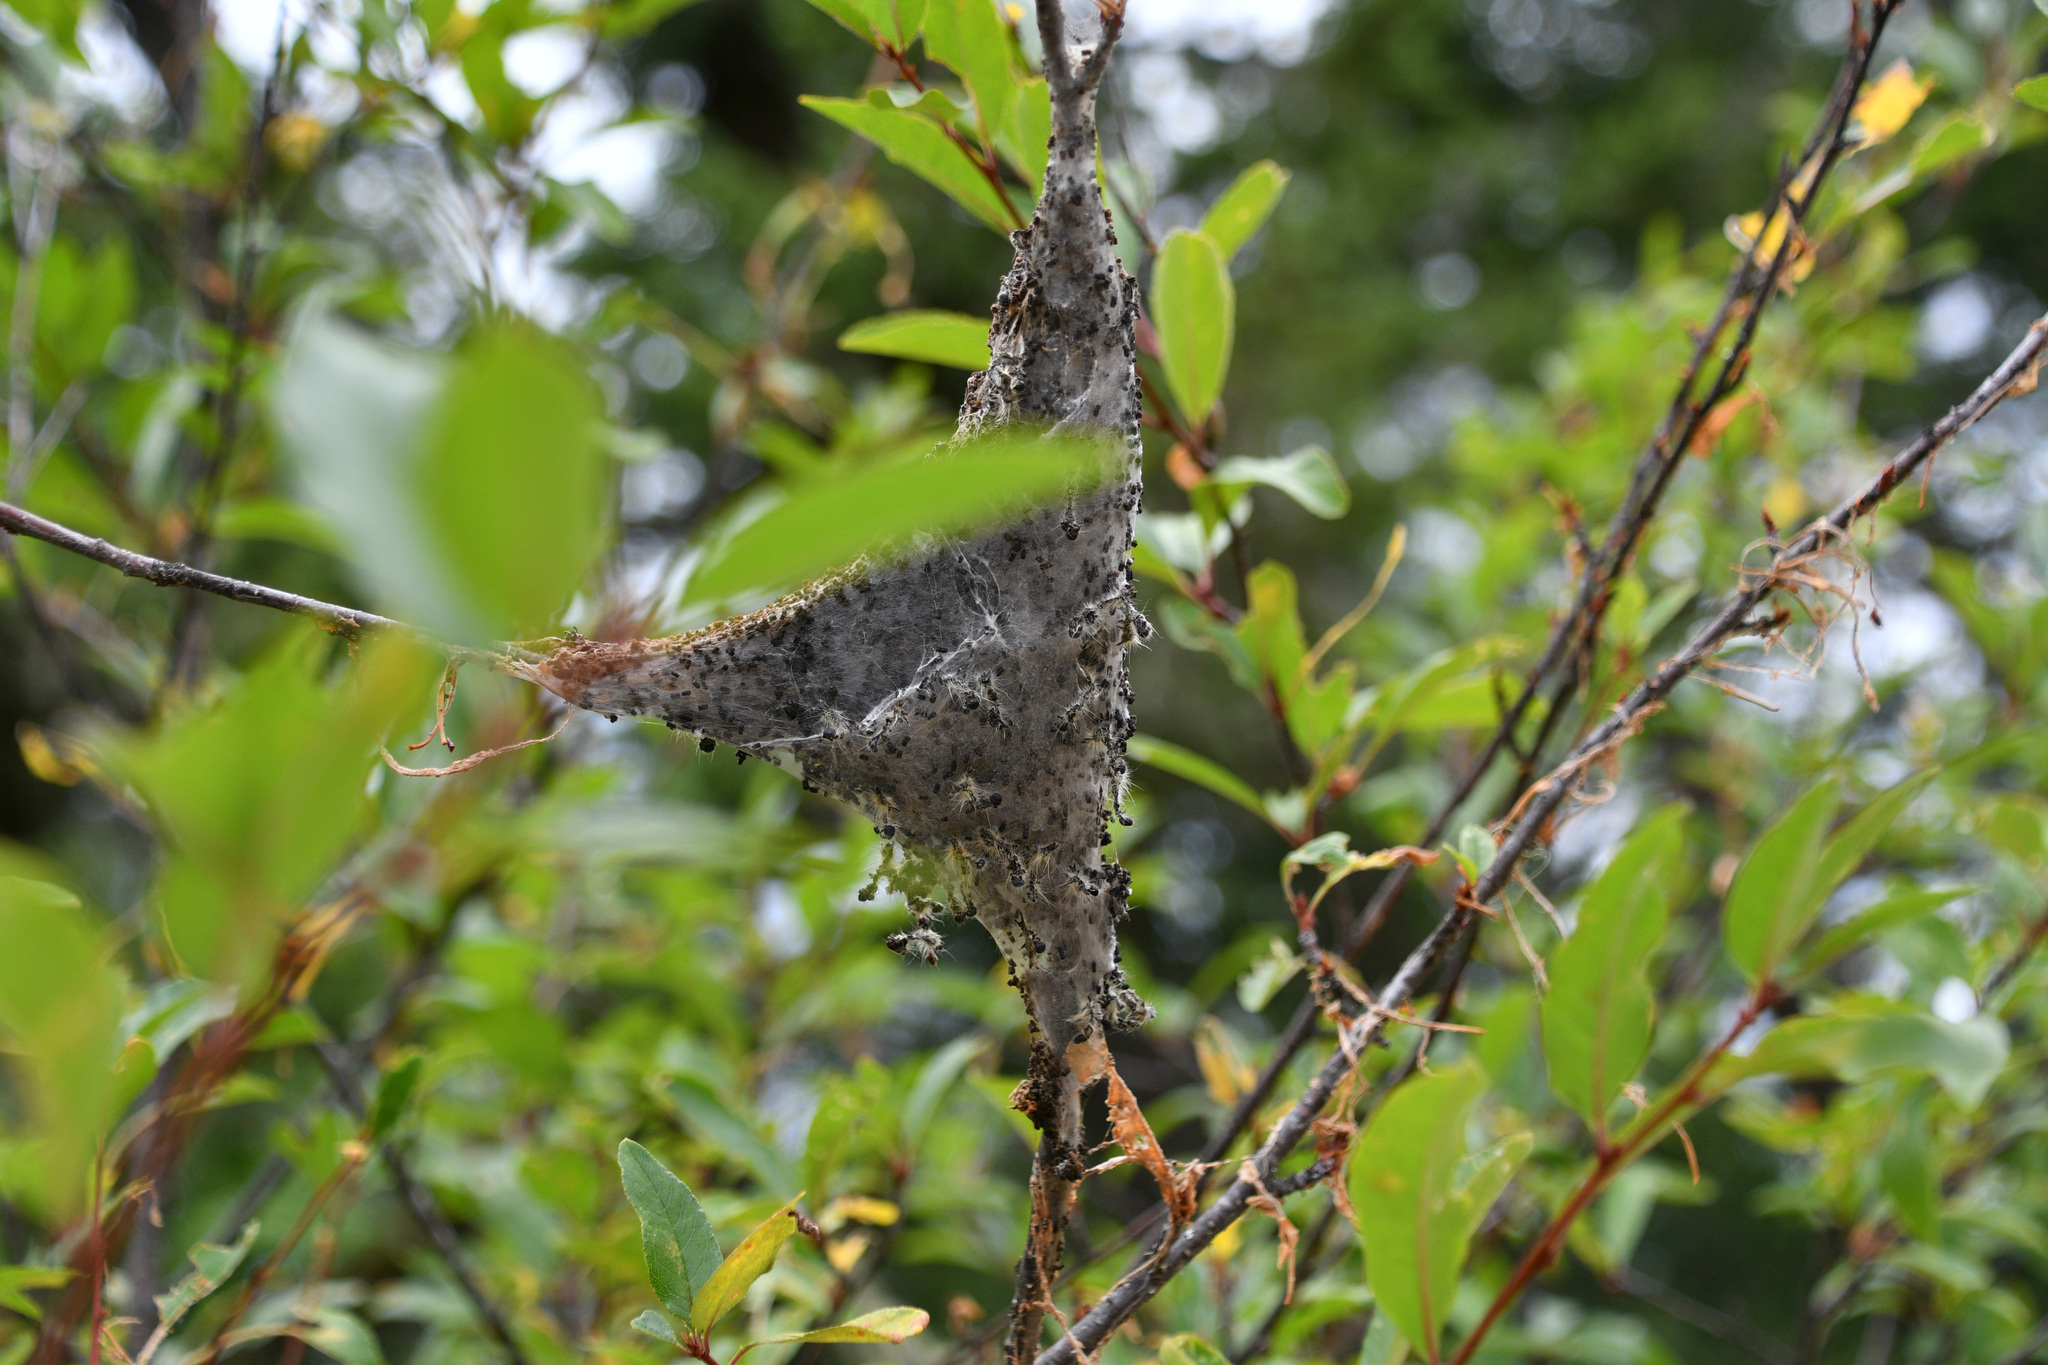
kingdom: Animalia
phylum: Arthropoda
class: Insecta
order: Lepidoptera
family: Lasiocampidae
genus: Malacosoma
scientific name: Malacosoma californica
